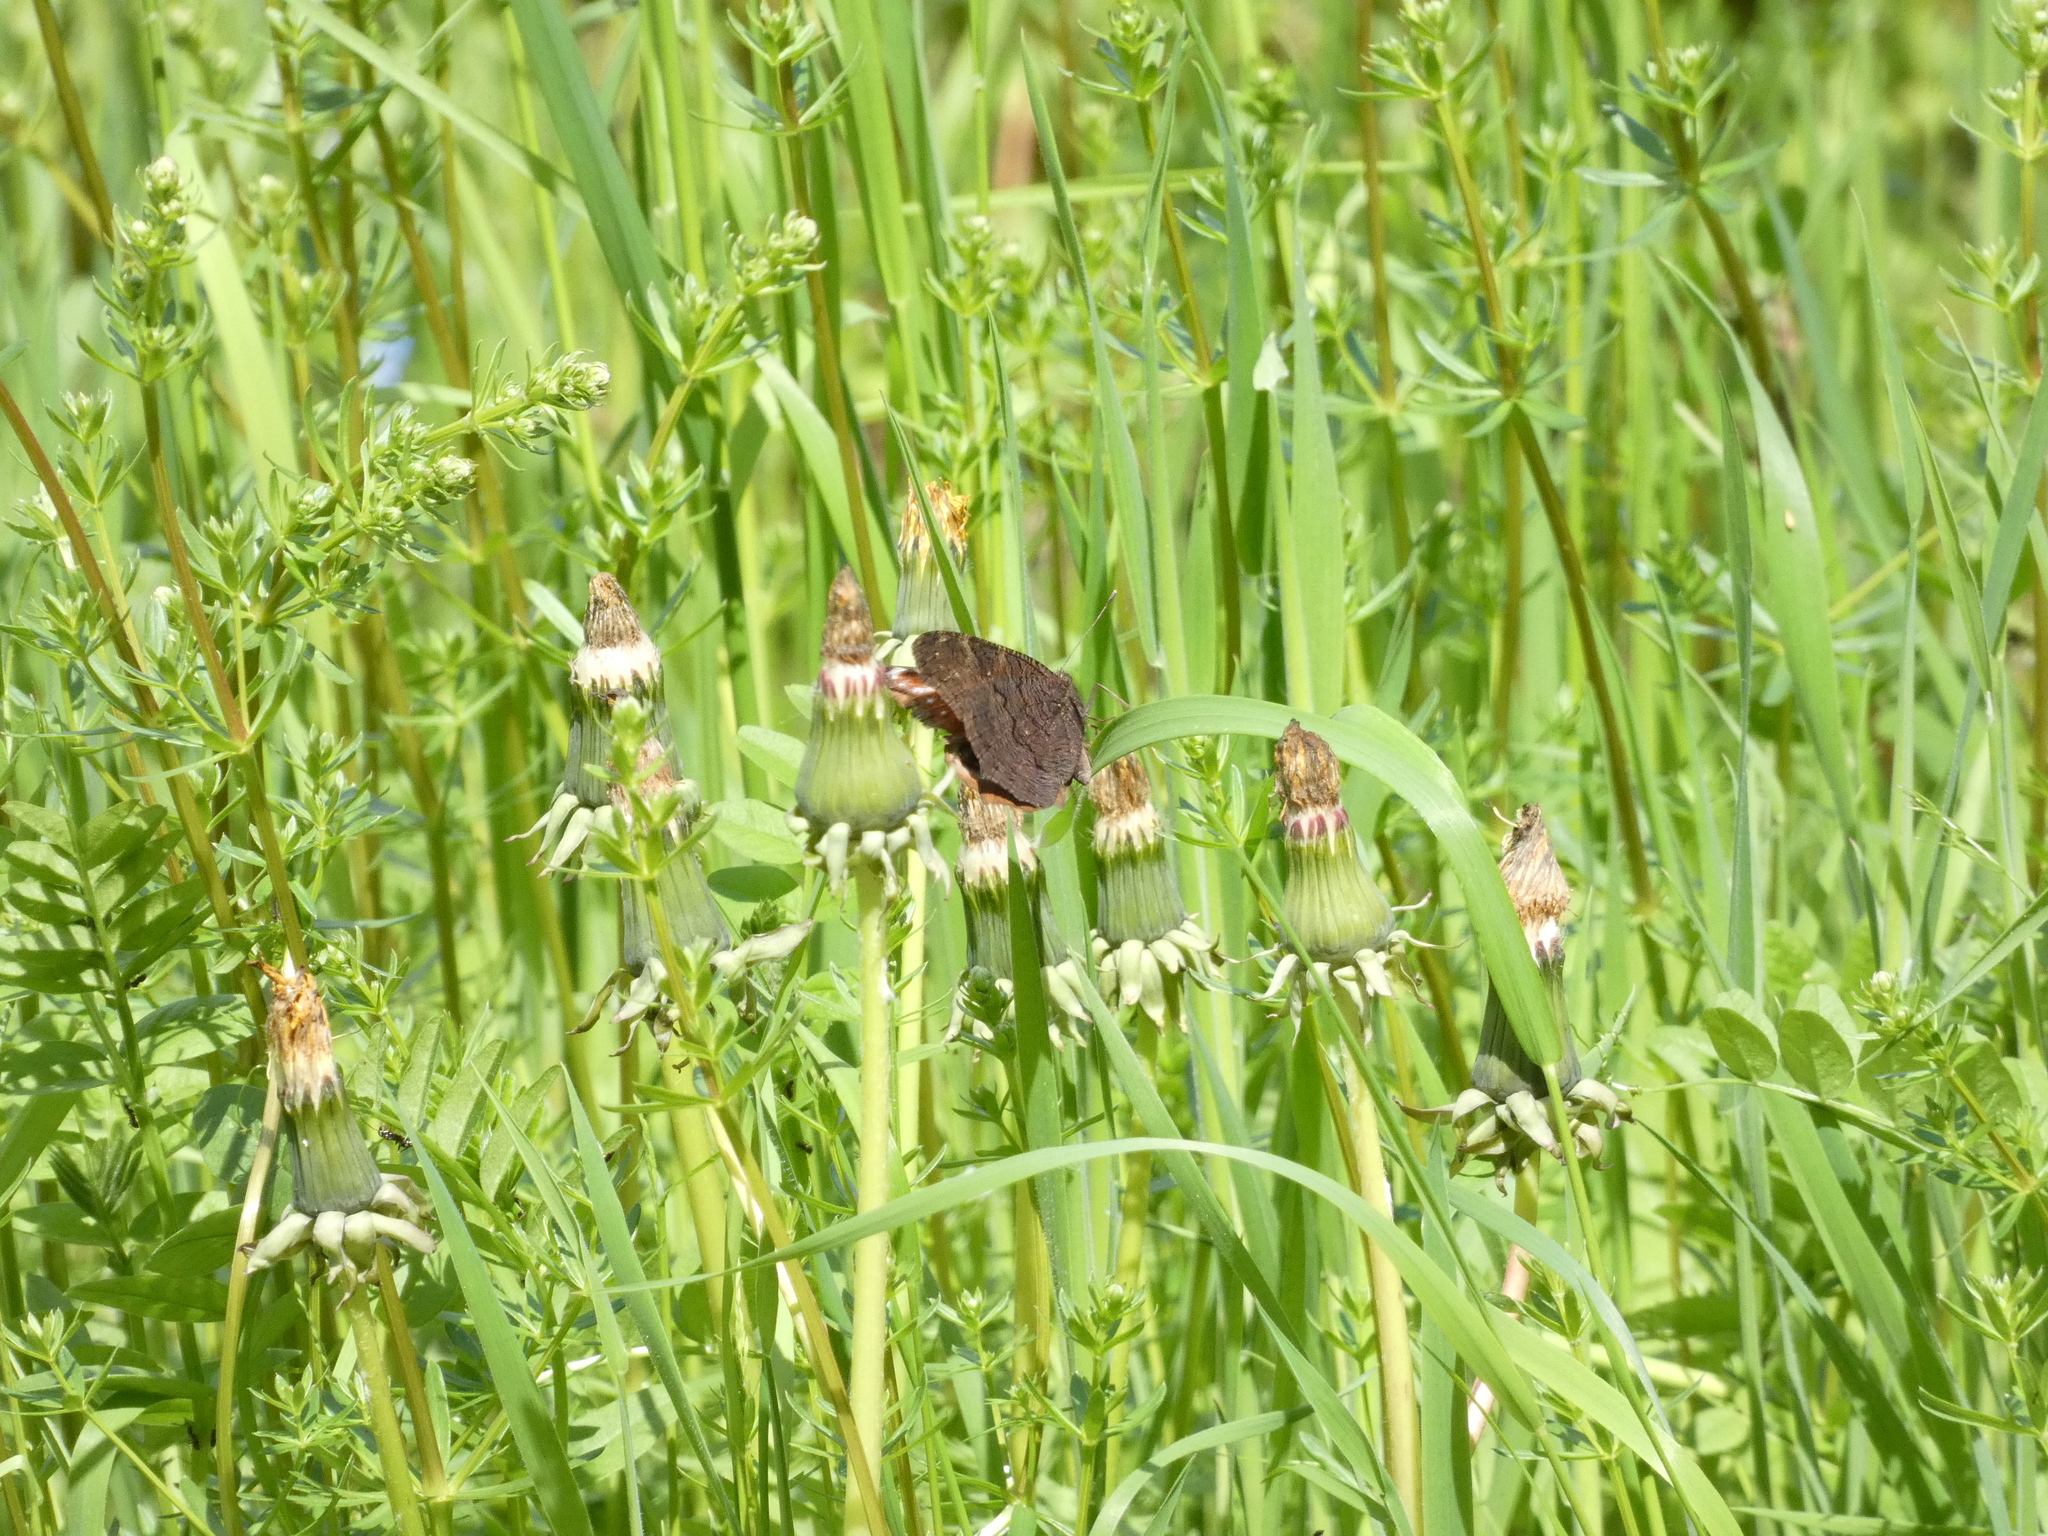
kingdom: Animalia
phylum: Arthropoda
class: Insecta
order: Lepidoptera
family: Nymphalidae
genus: Aglais
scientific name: Aglais io
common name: Peacock
